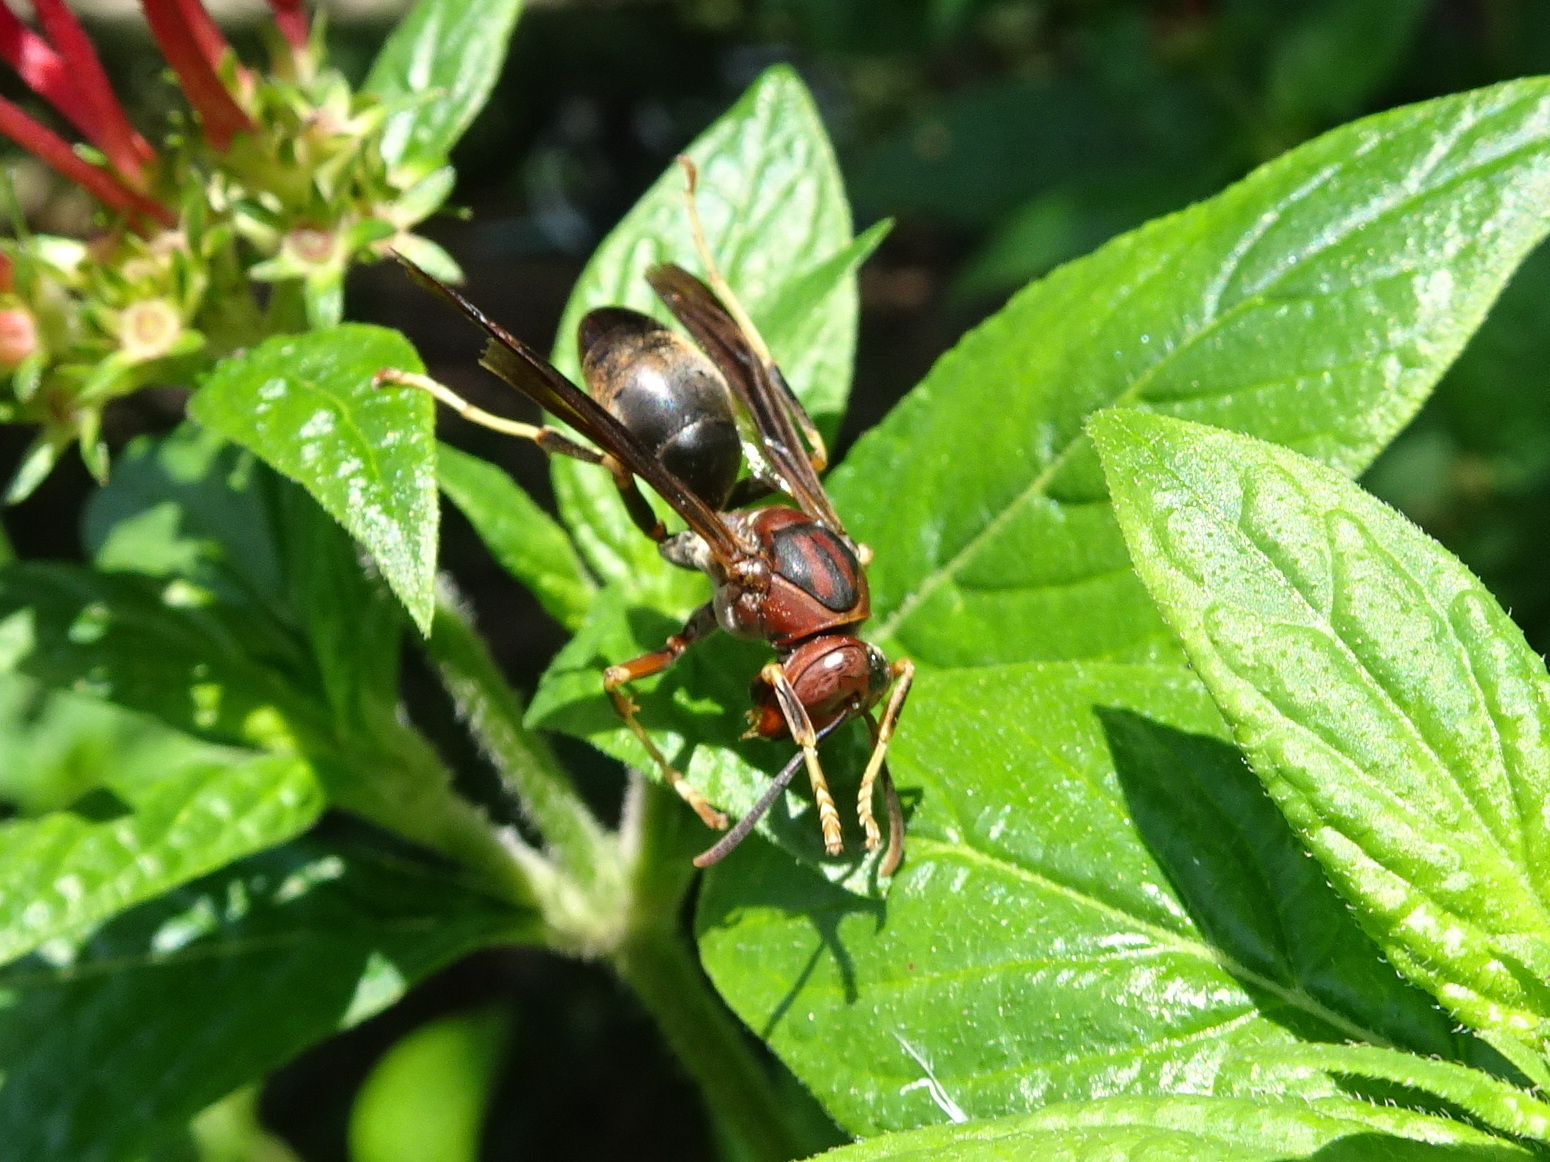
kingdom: Animalia
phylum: Arthropoda
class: Insecta
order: Hymenoptera
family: Eumenidae
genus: Polistes
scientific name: Polistes metricus
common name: Metric paper wasp
